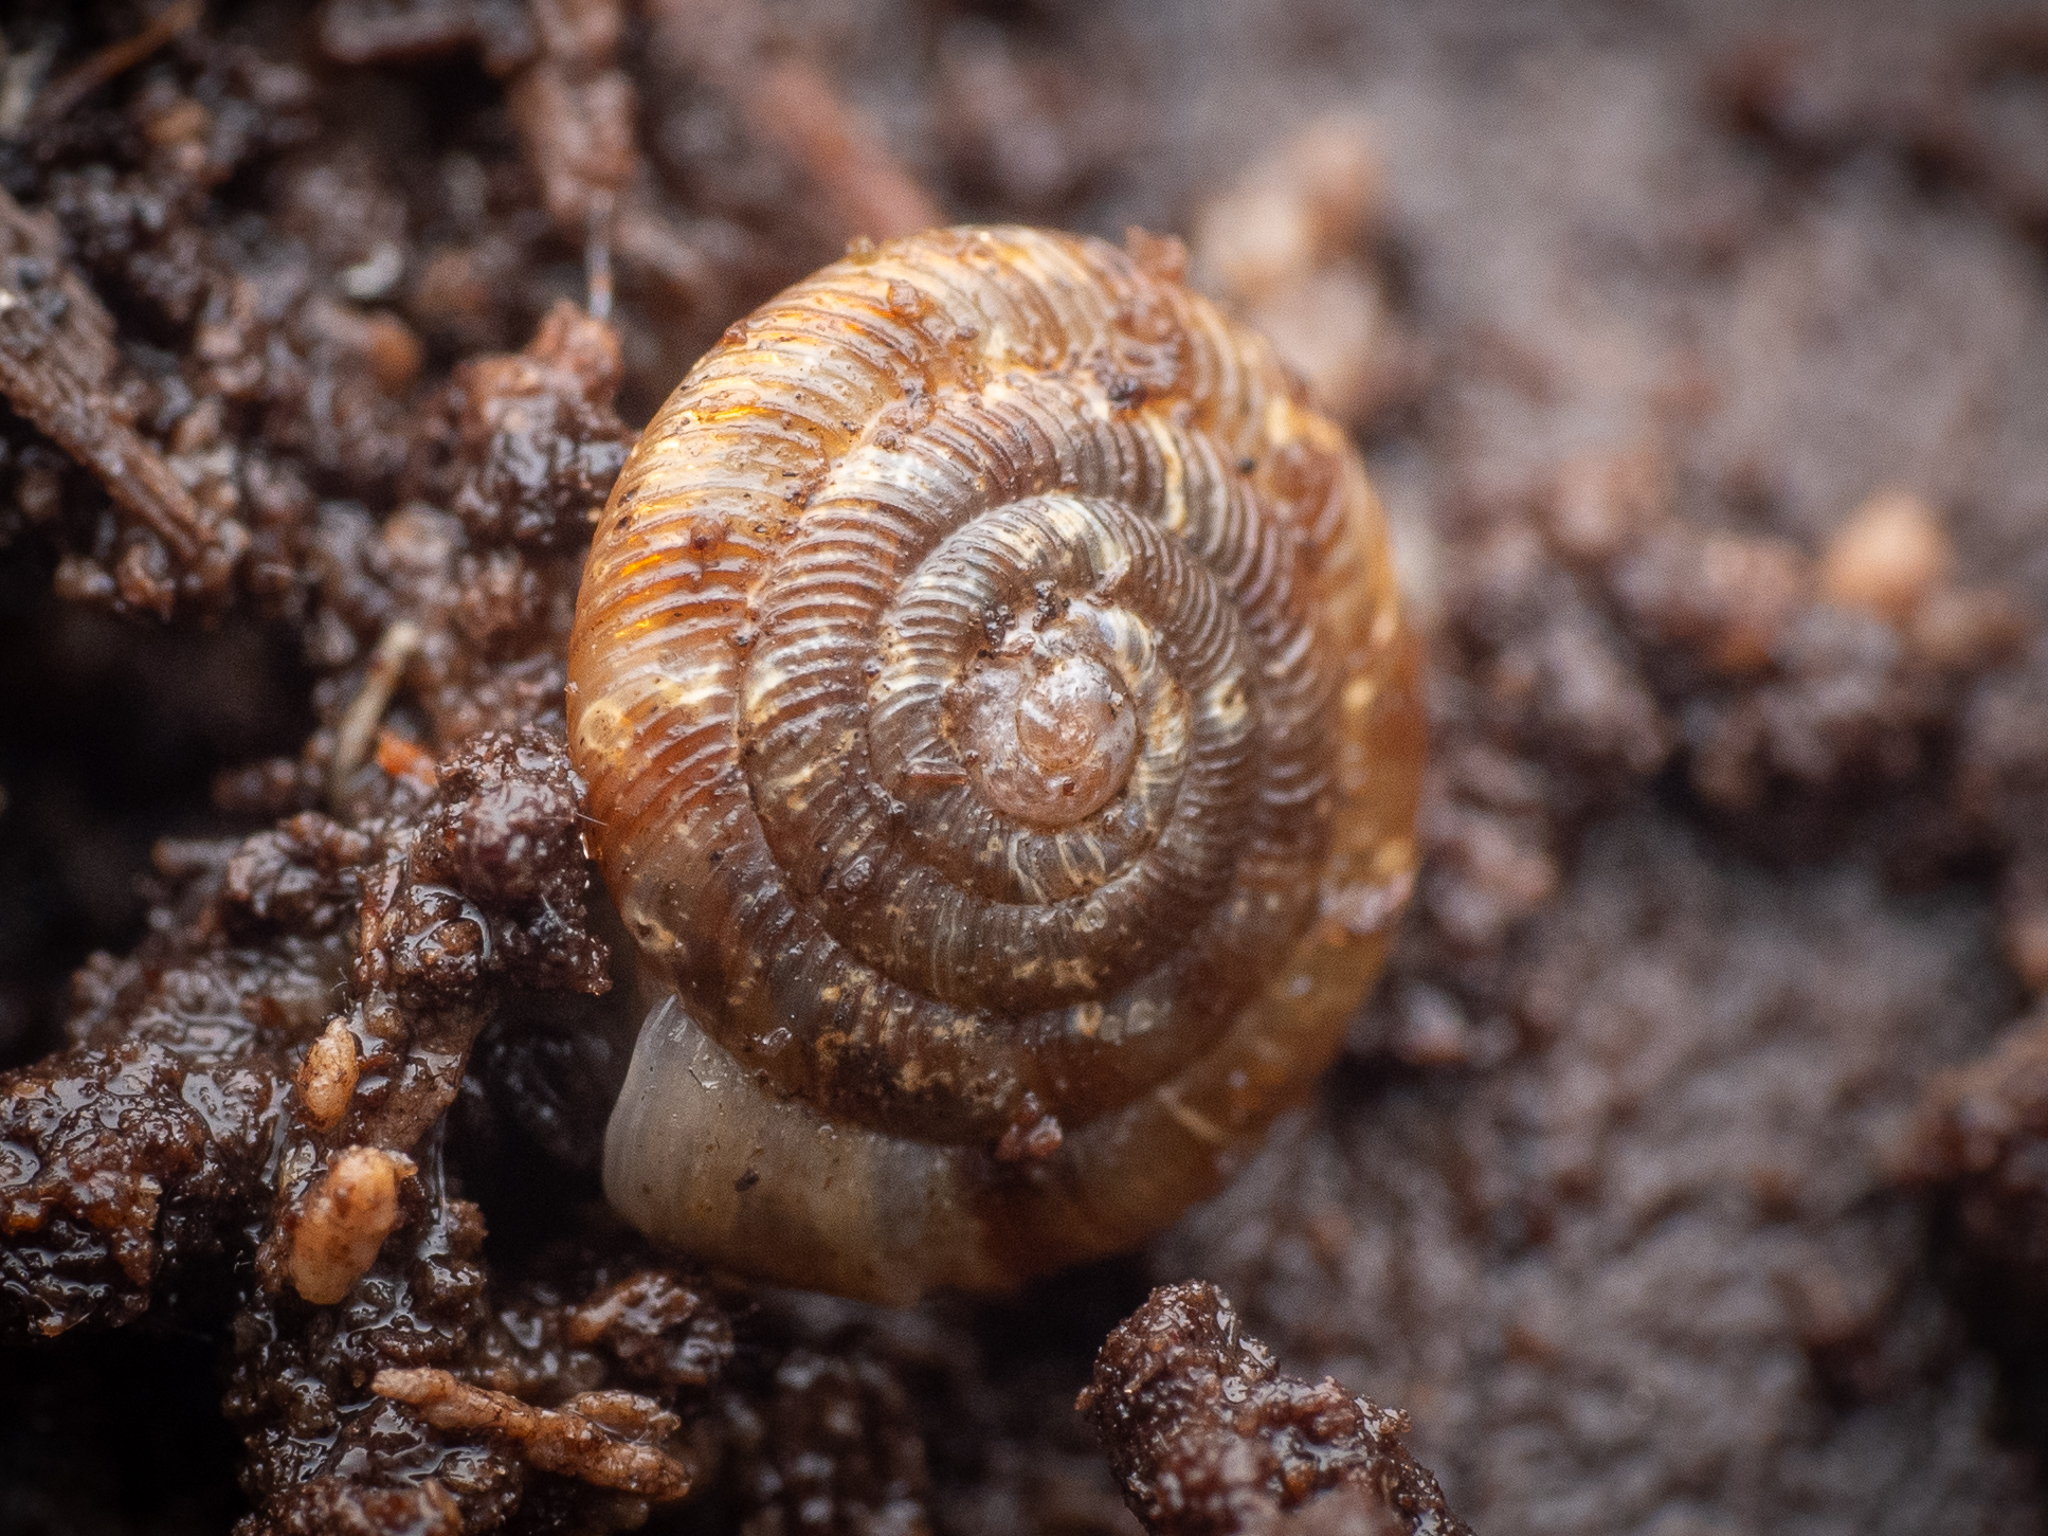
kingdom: Animalia
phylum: Mollusca
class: Gastropoda
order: Stylommatophora
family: Discidae
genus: Discus
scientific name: Discus rotundatus
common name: Rounded snail
